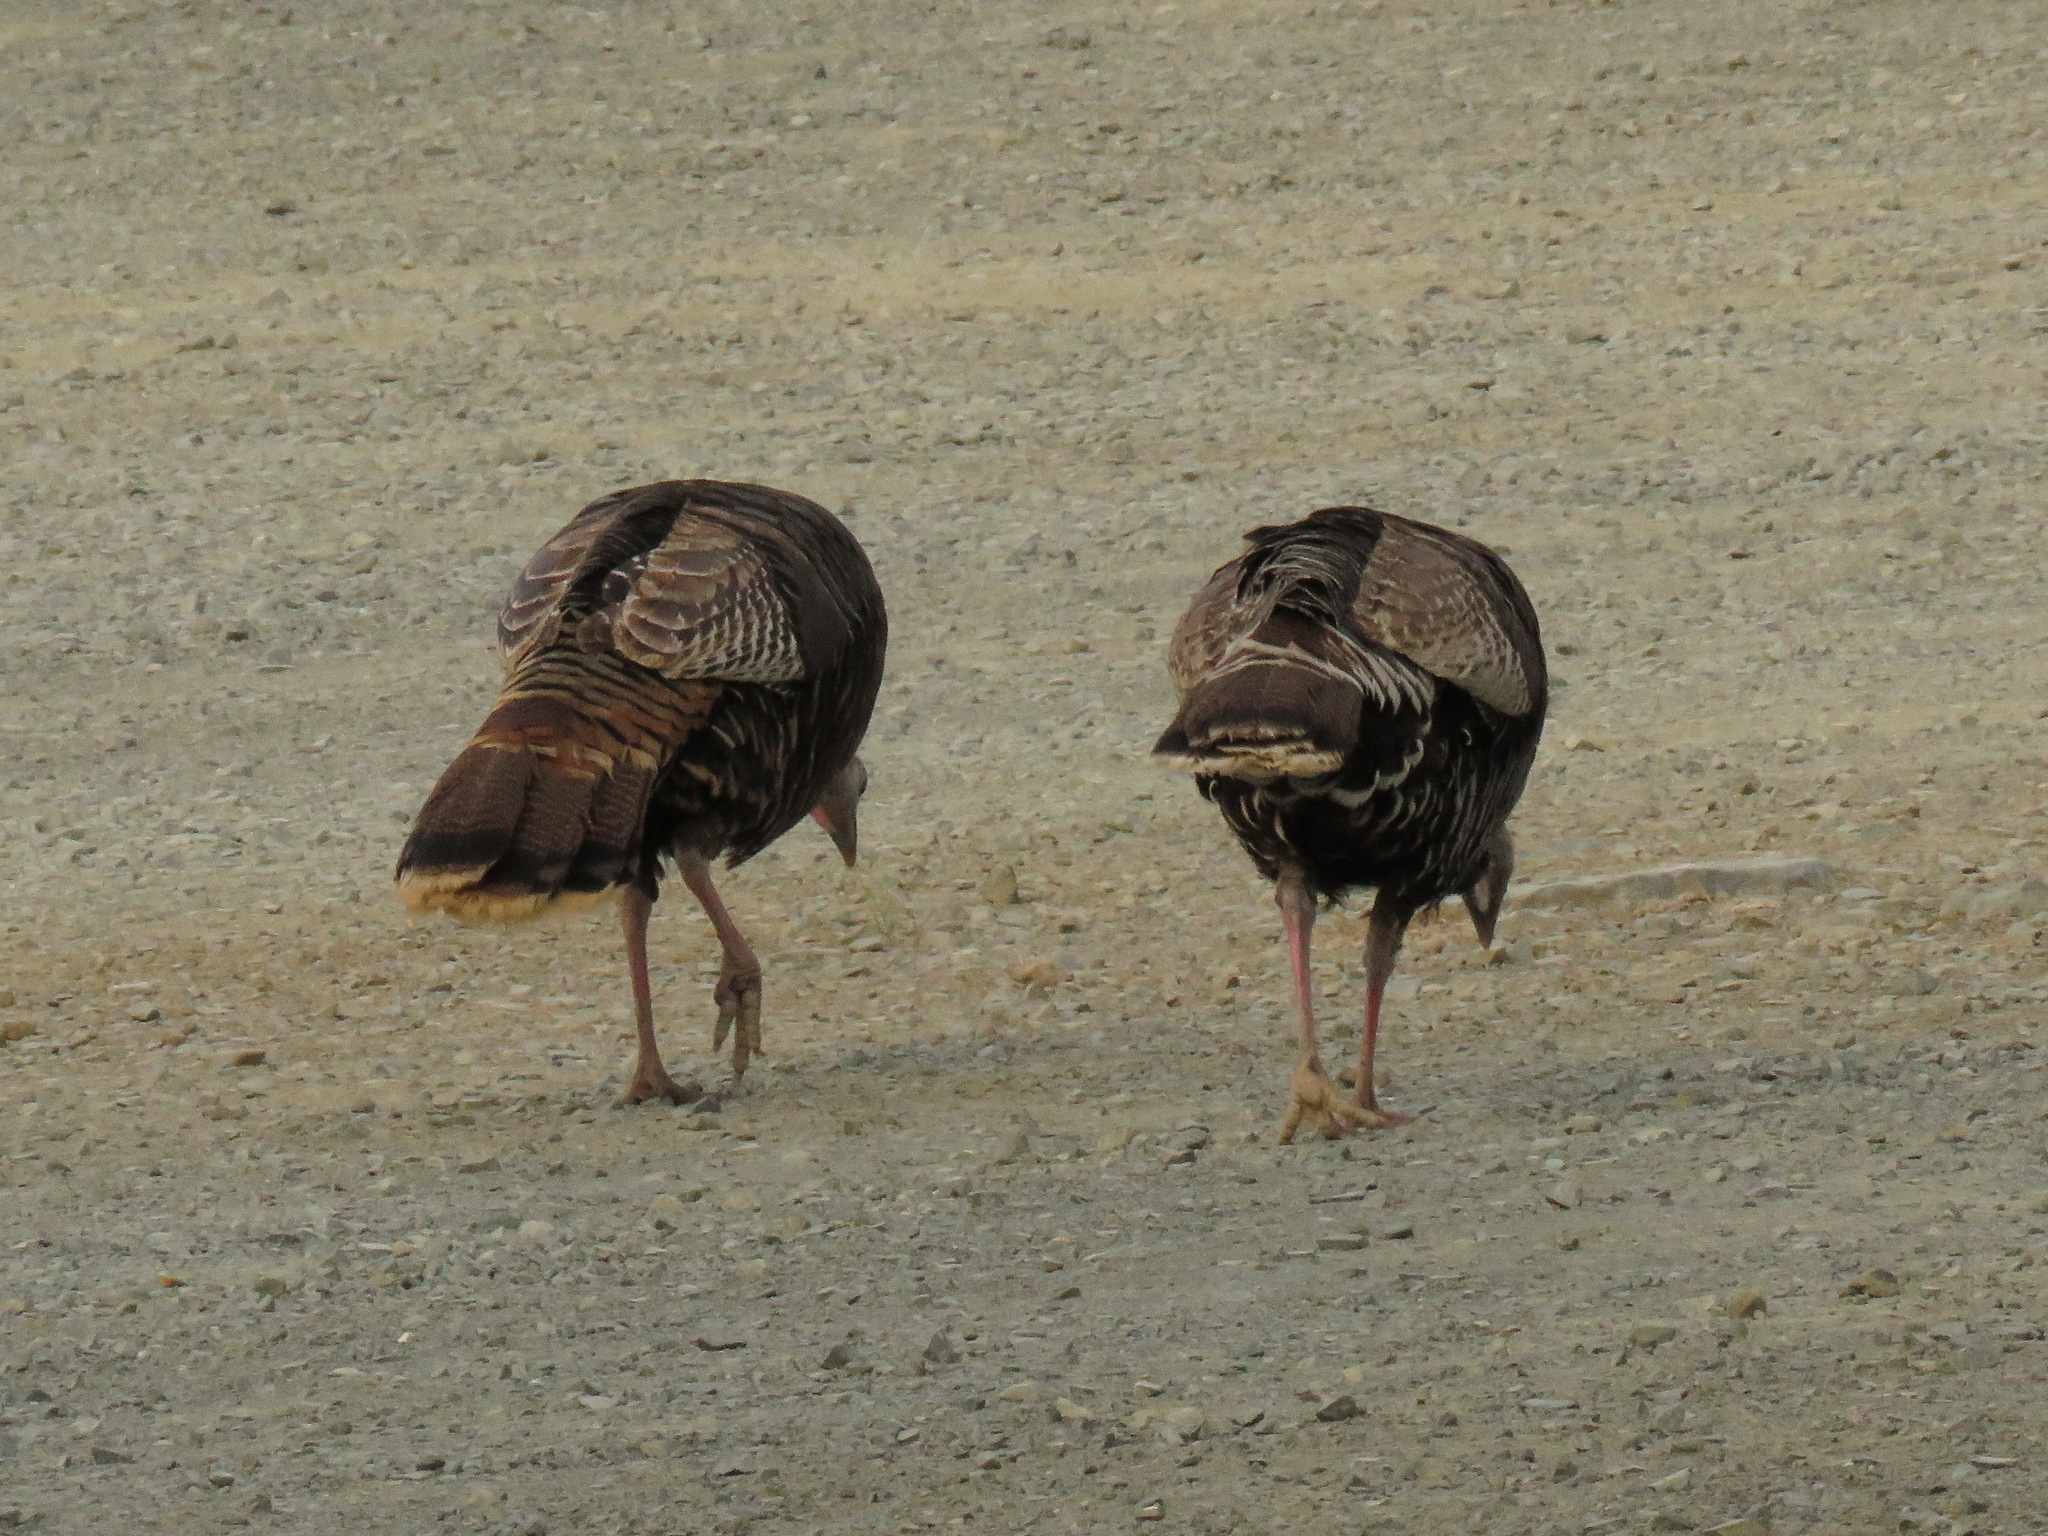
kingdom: Animalia
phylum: Chordata
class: Aves
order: Galliformes
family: Phasianidae
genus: Meleagris
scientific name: Meleagris gallopavo
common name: Wild turkey
